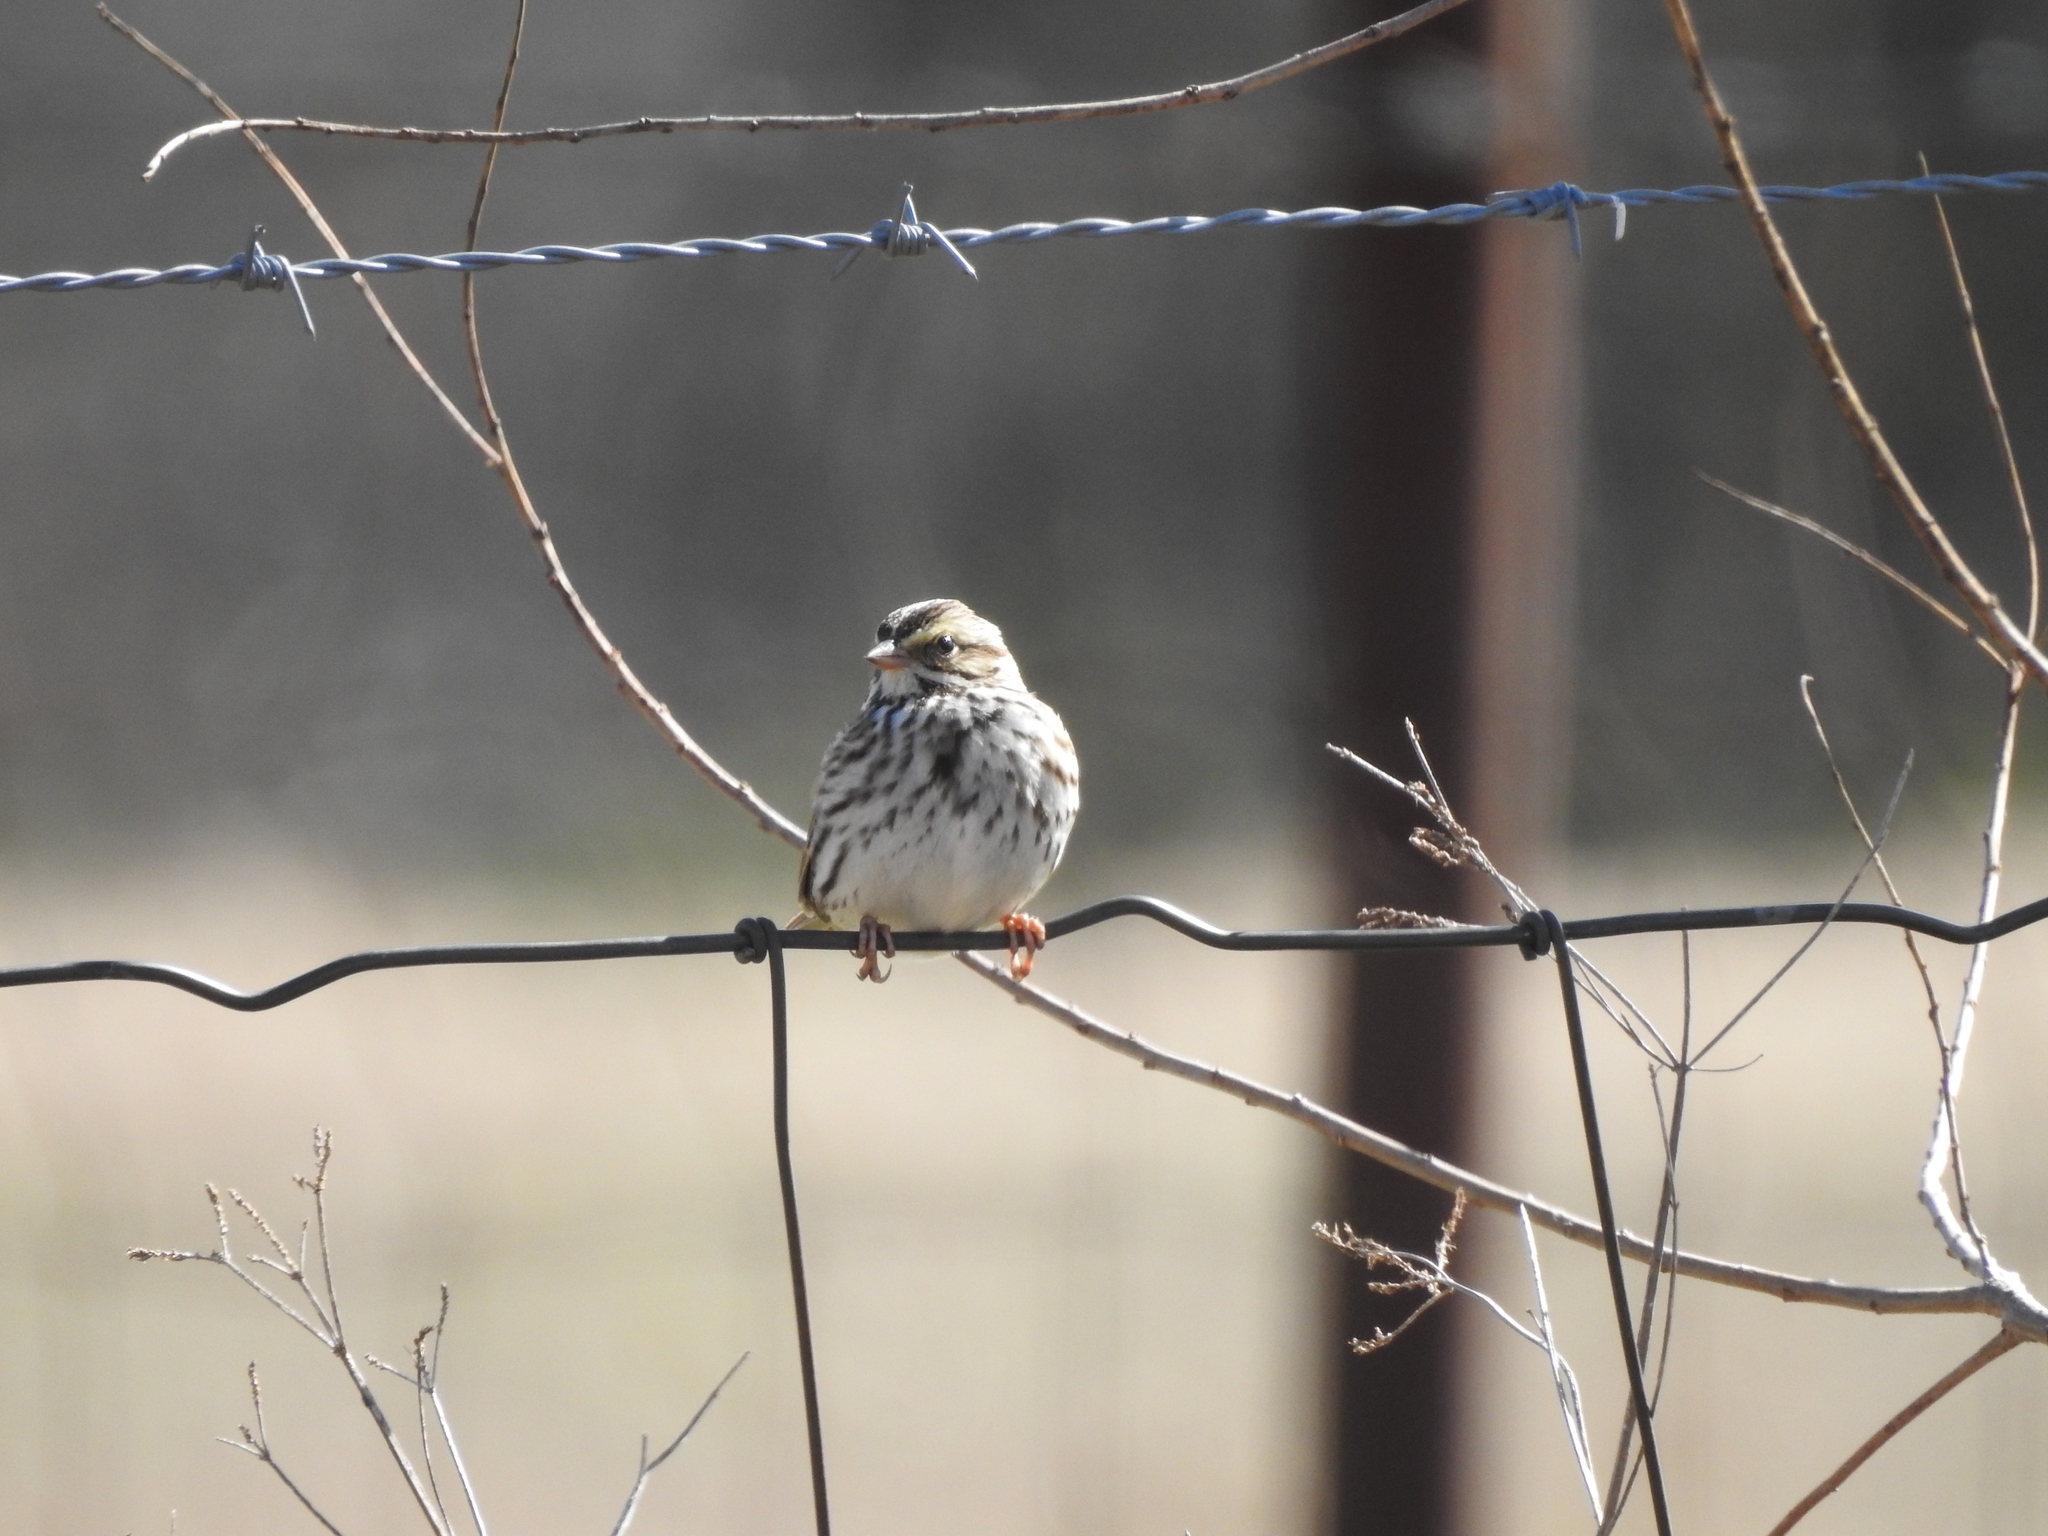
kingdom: Animalia
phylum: Chordata
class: Aves
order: Passeriformes
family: Passerellidae
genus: Passerculus
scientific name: Passerculus sandwichensis
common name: Savannah sparrow
